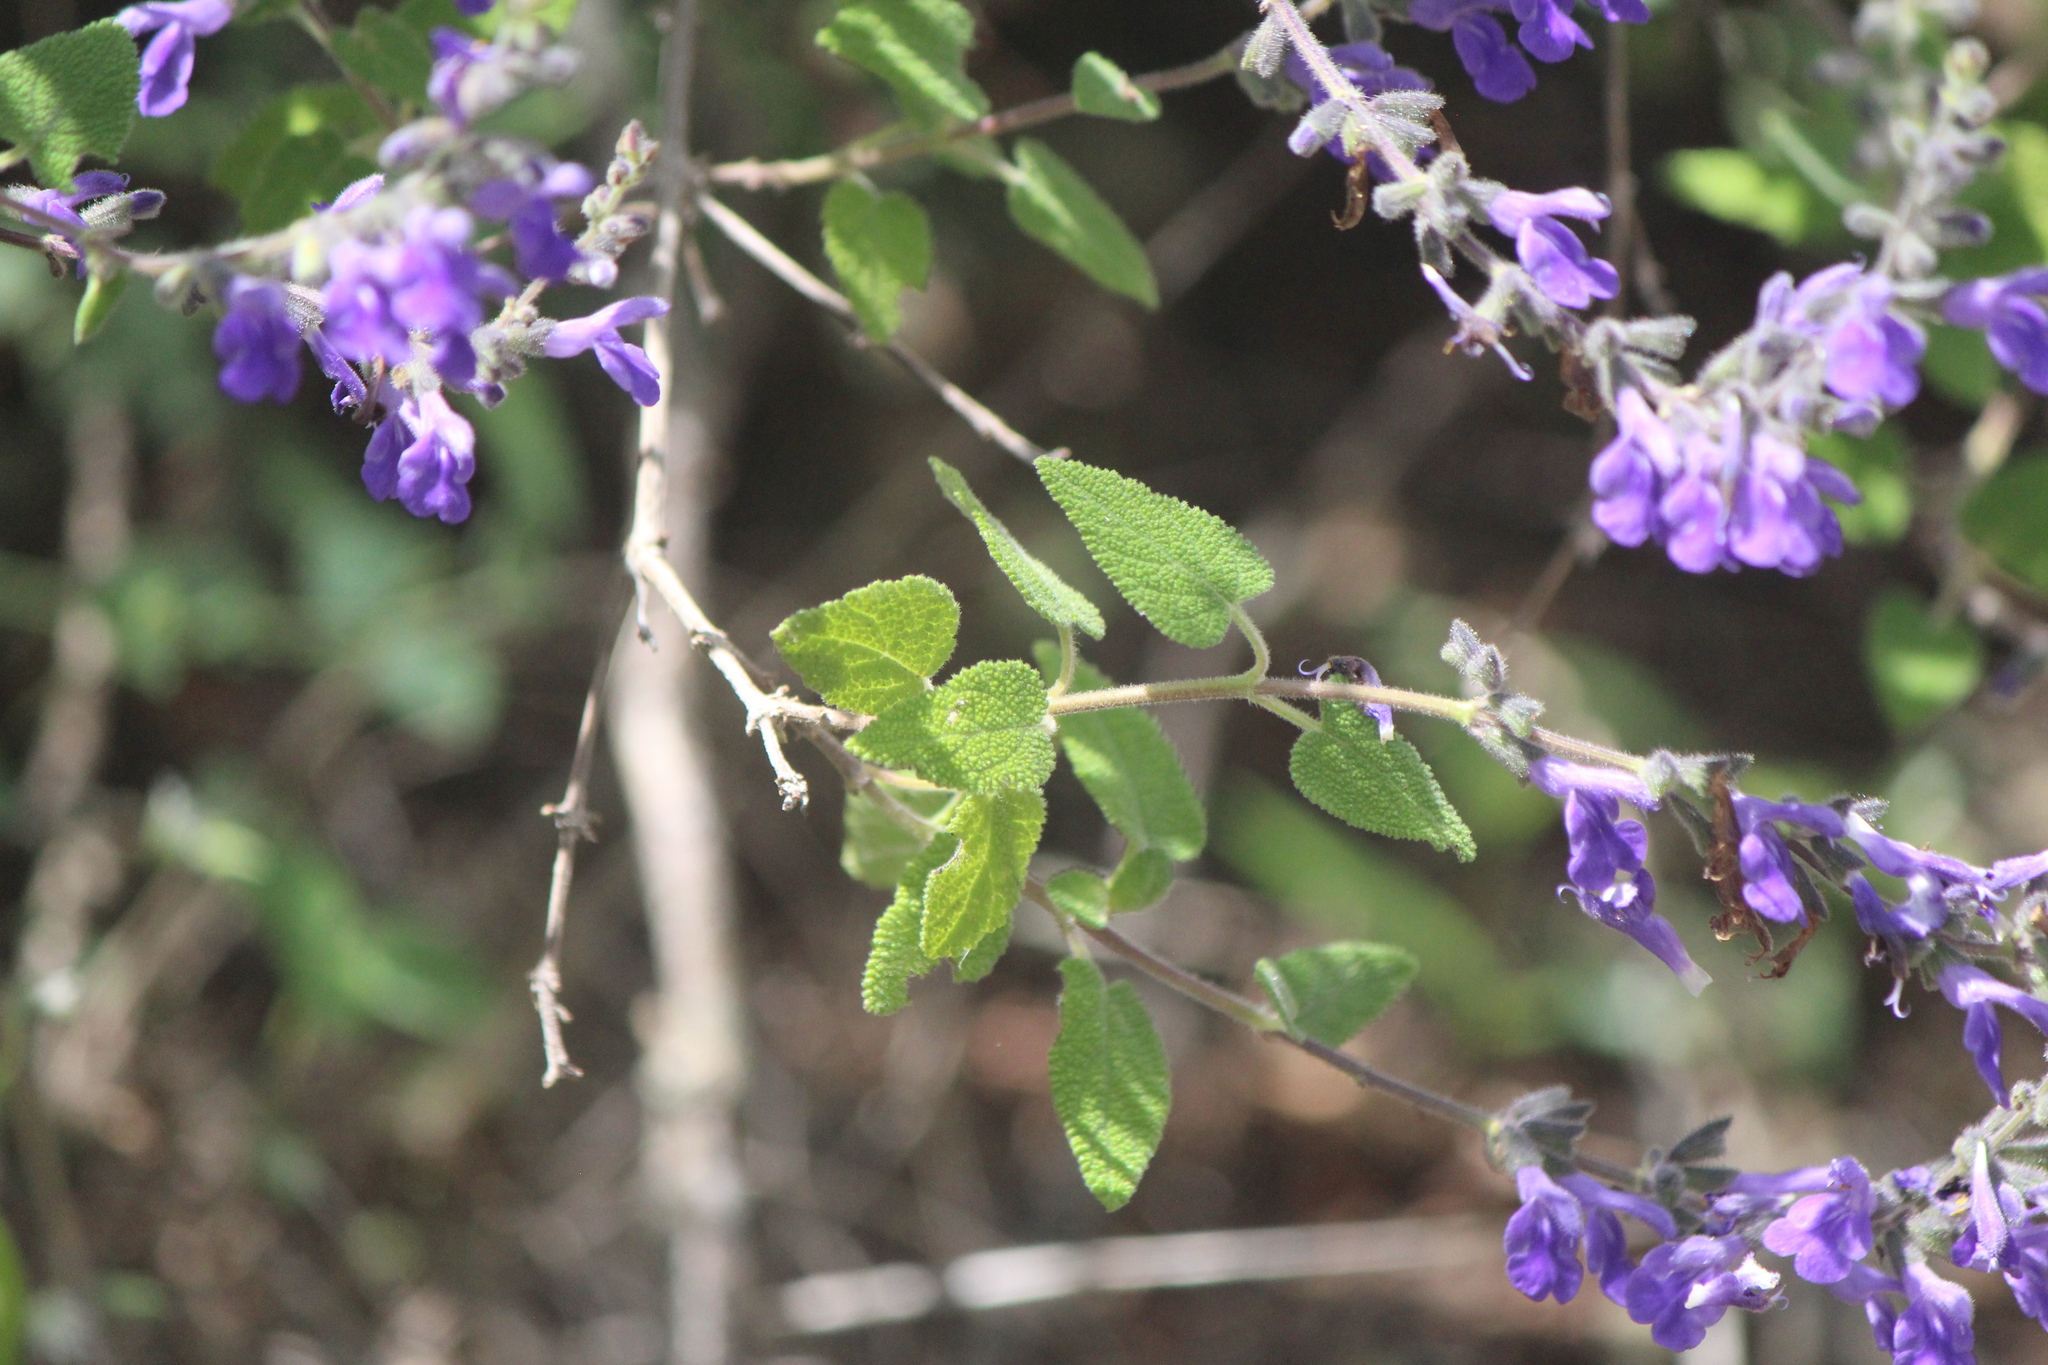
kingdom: Plantae
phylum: Tracheophyta
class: Magnoliopsida
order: Lamiales
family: Lamiaceae
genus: Salvia
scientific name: Salvia melissodora
